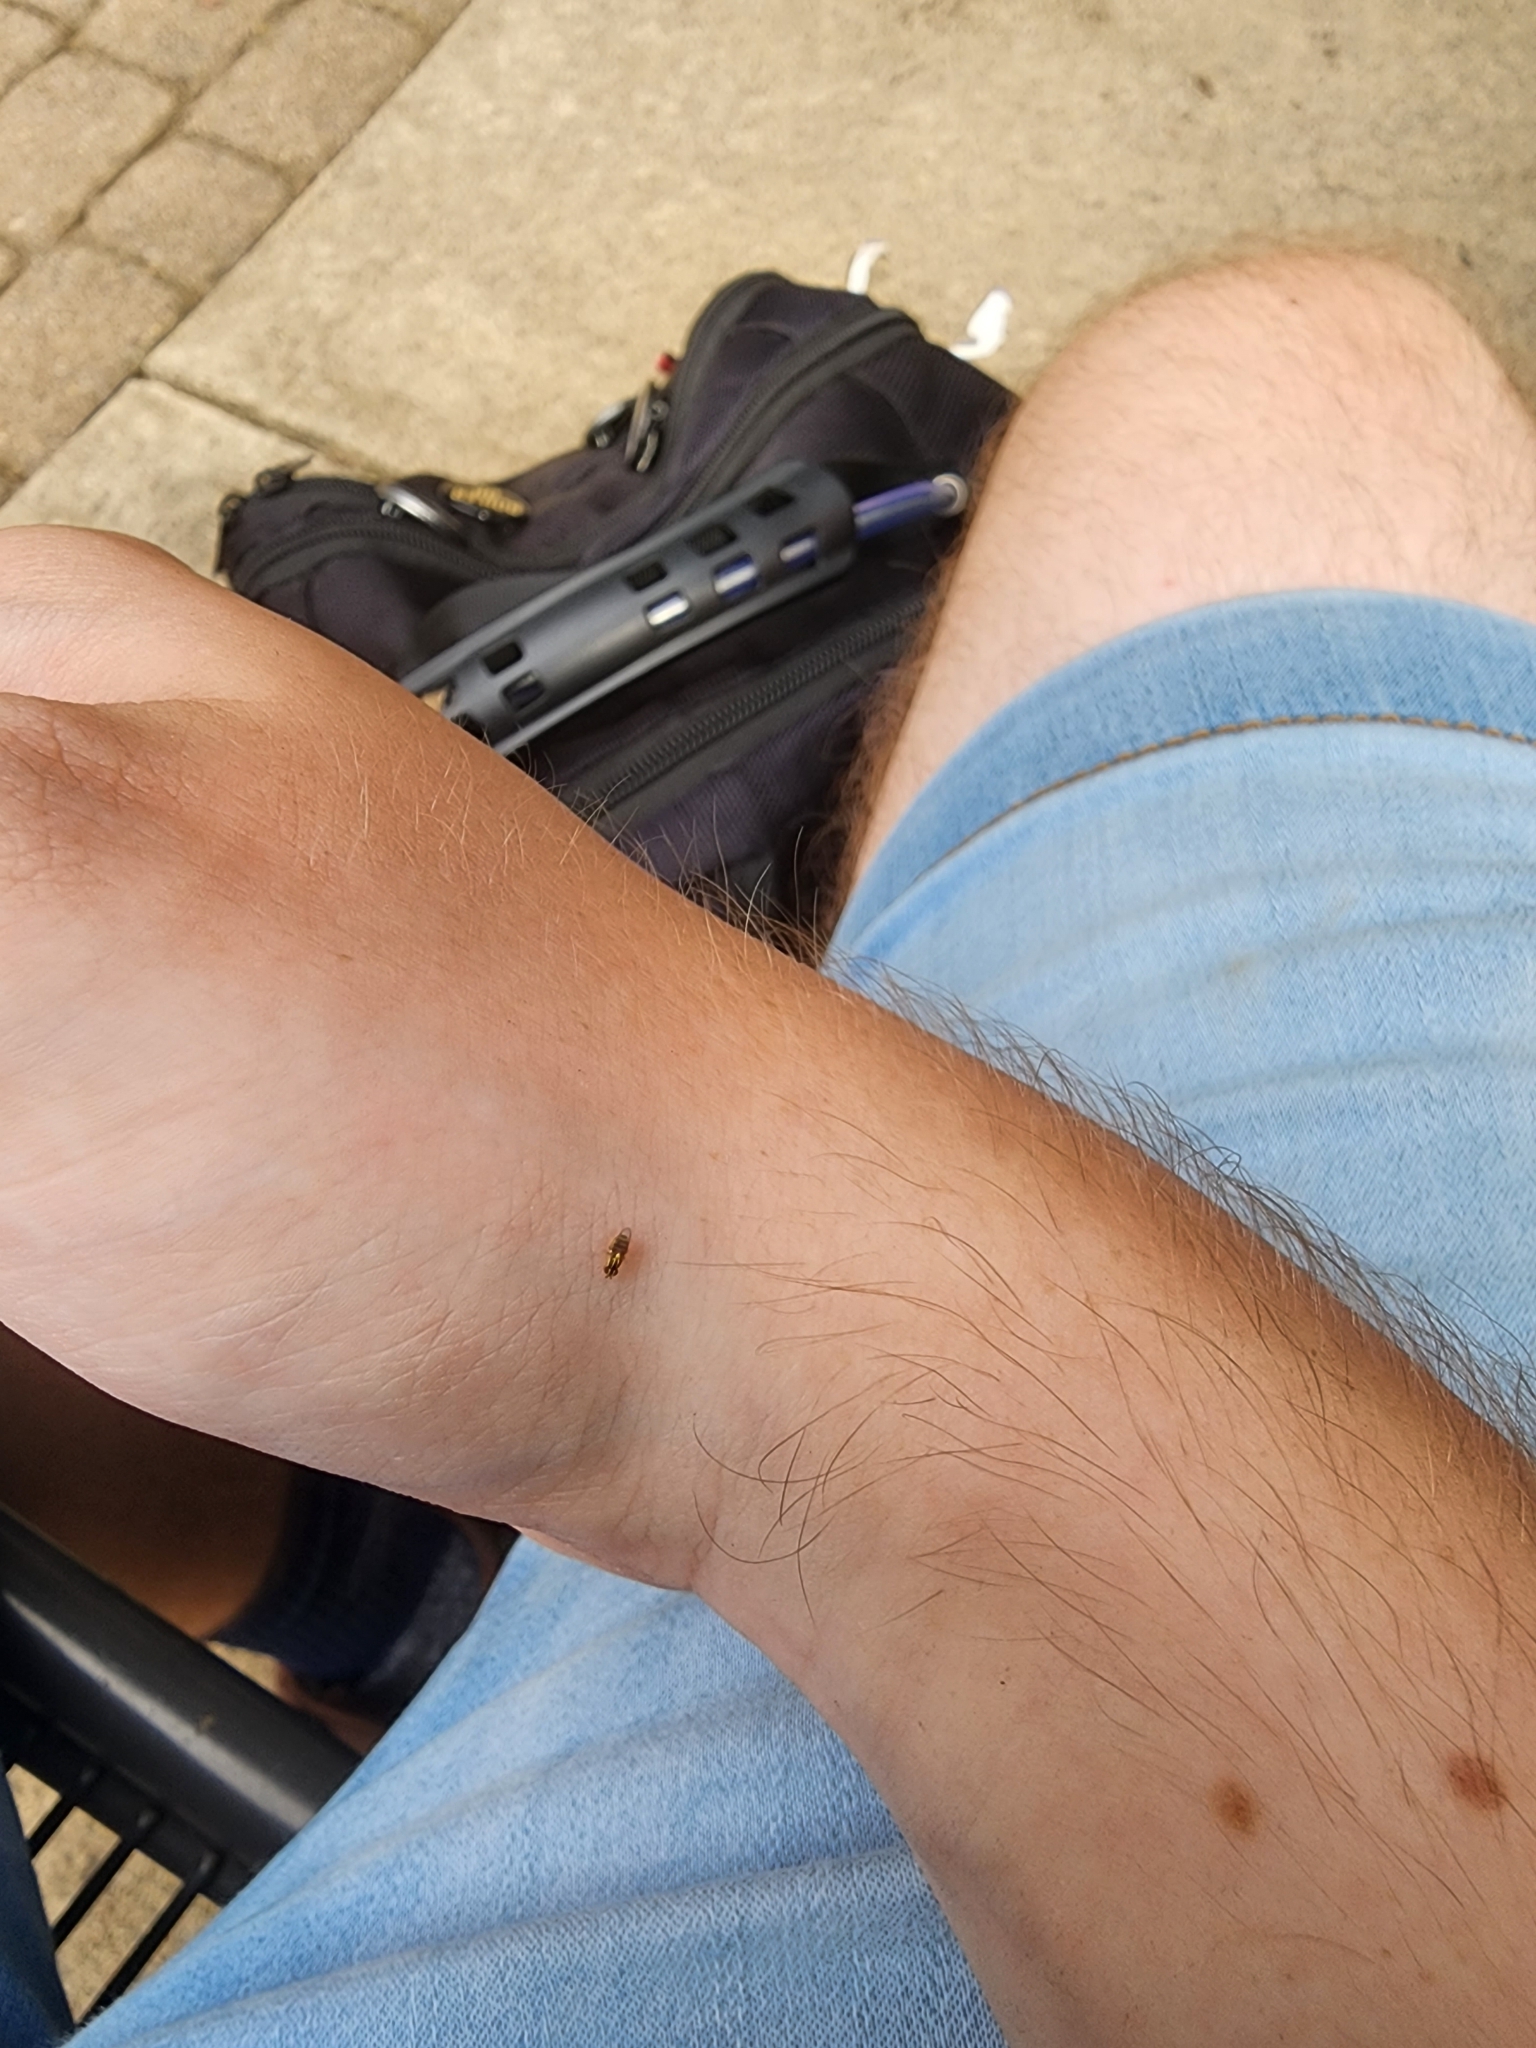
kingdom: Animalia
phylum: Arthropoda
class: Insecta
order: Diptera
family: Chloropidae
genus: Thaumatomyia
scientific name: Thaumatomyia glabra
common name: Chloropid fly
